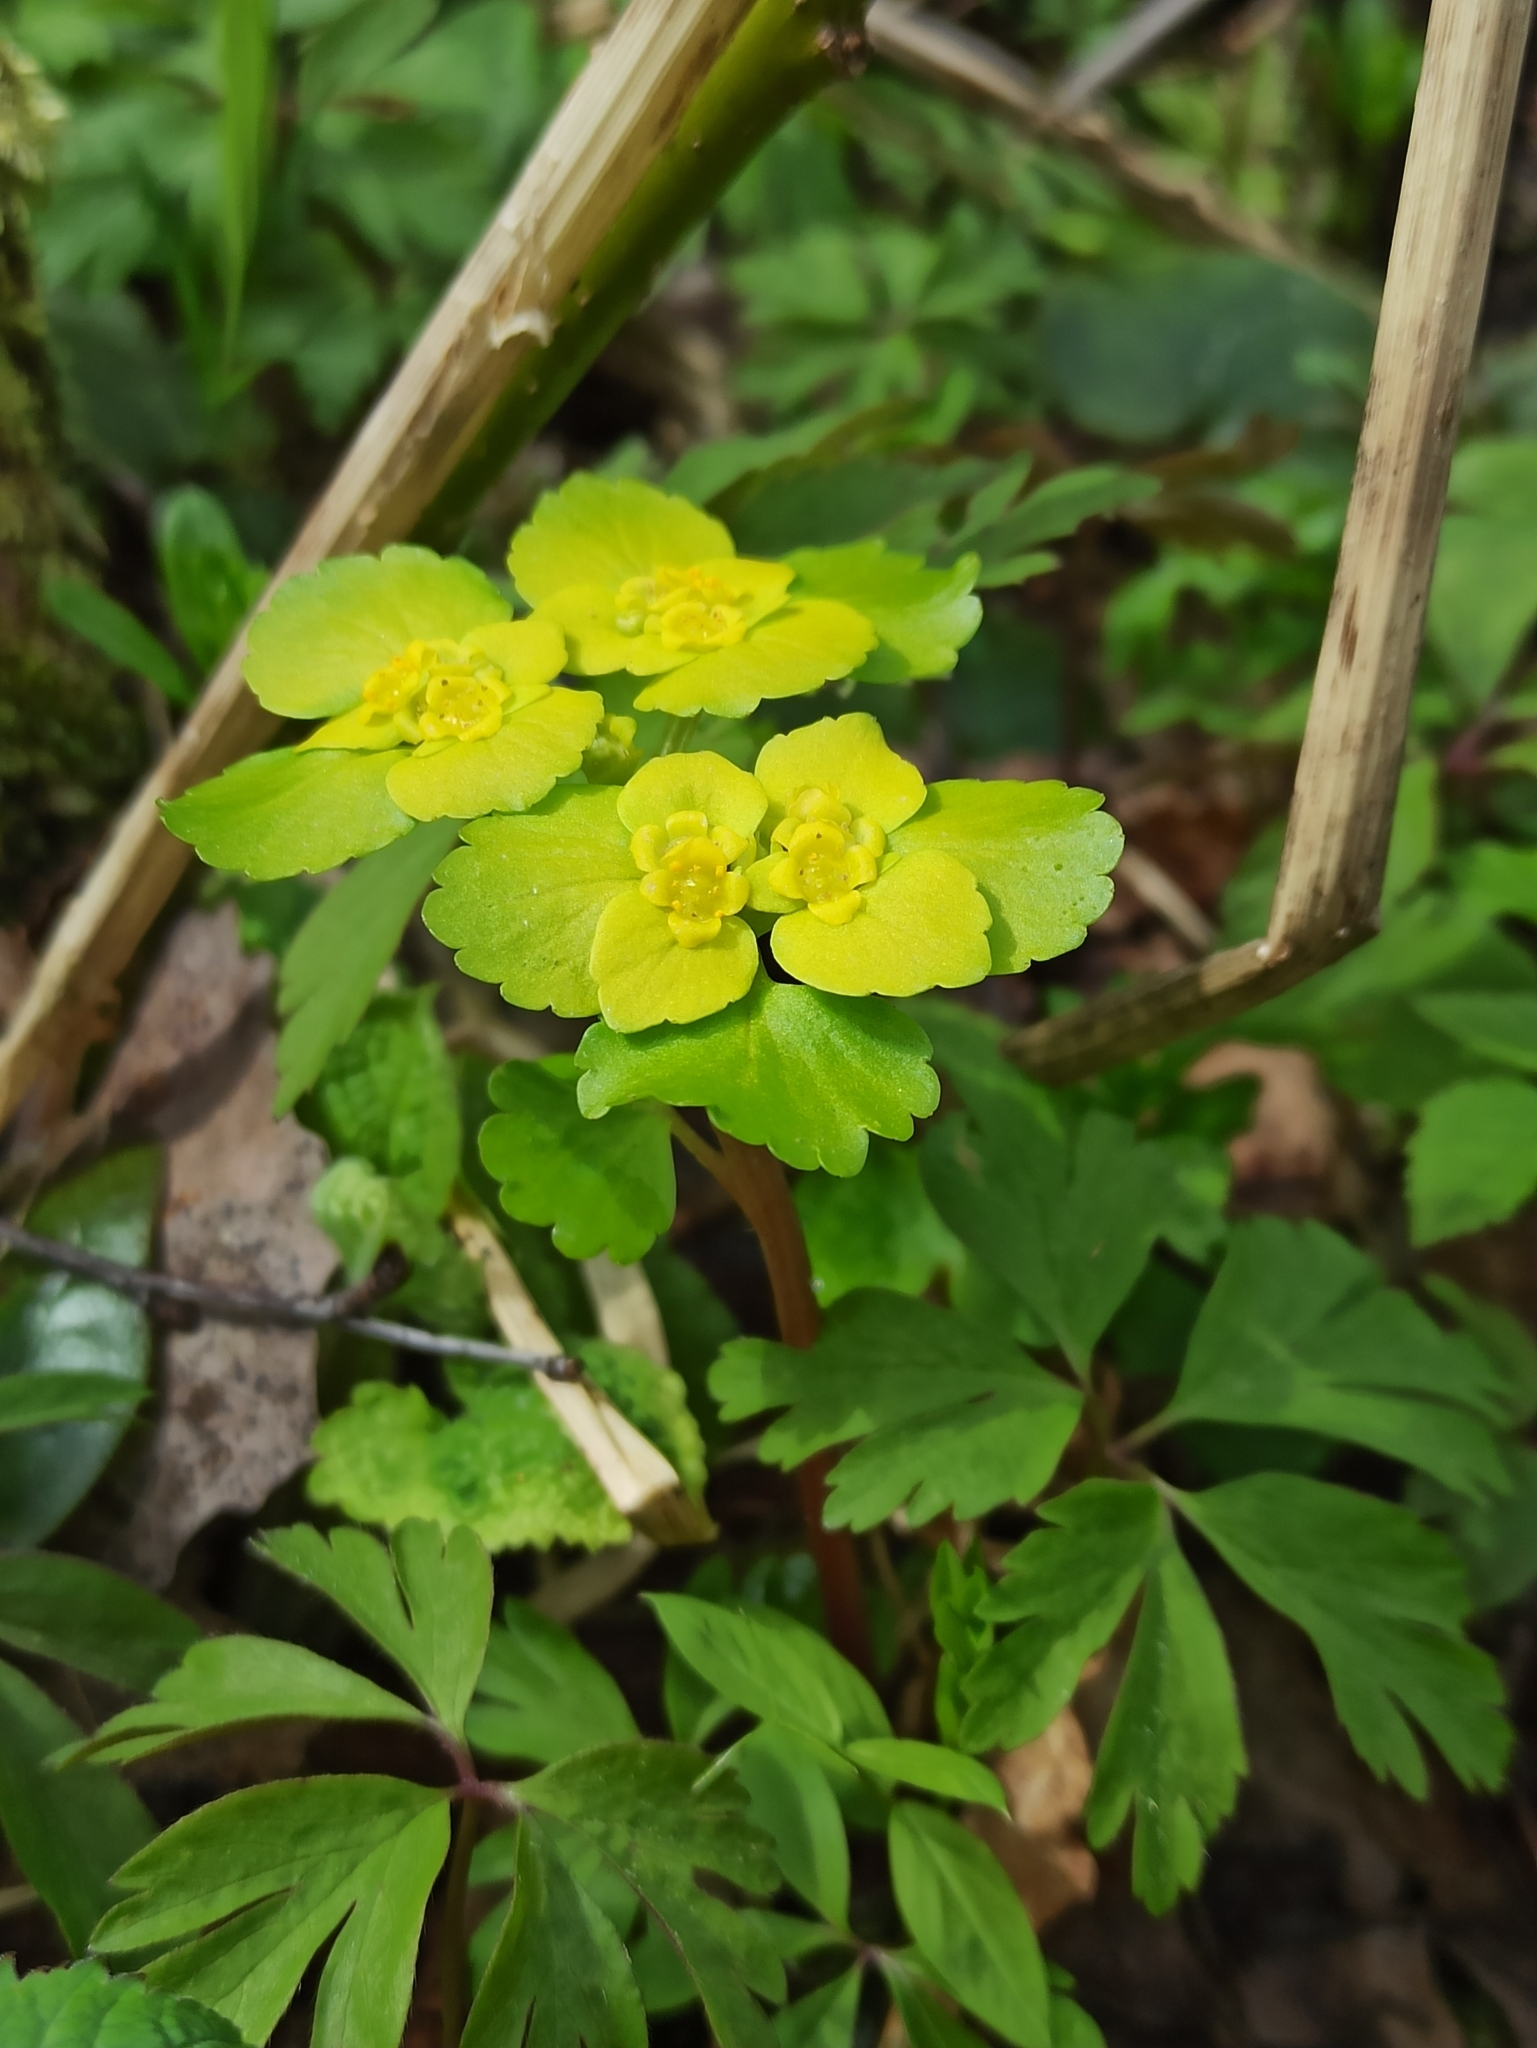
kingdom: Plantae
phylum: Tracheophyta
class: Magnoliopsida
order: Saxifragales
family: Saxifragaceae
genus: Chrysosplenium
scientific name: Chrysosplenium alternifolium
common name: Alternate-leaved golden-saxifrage
